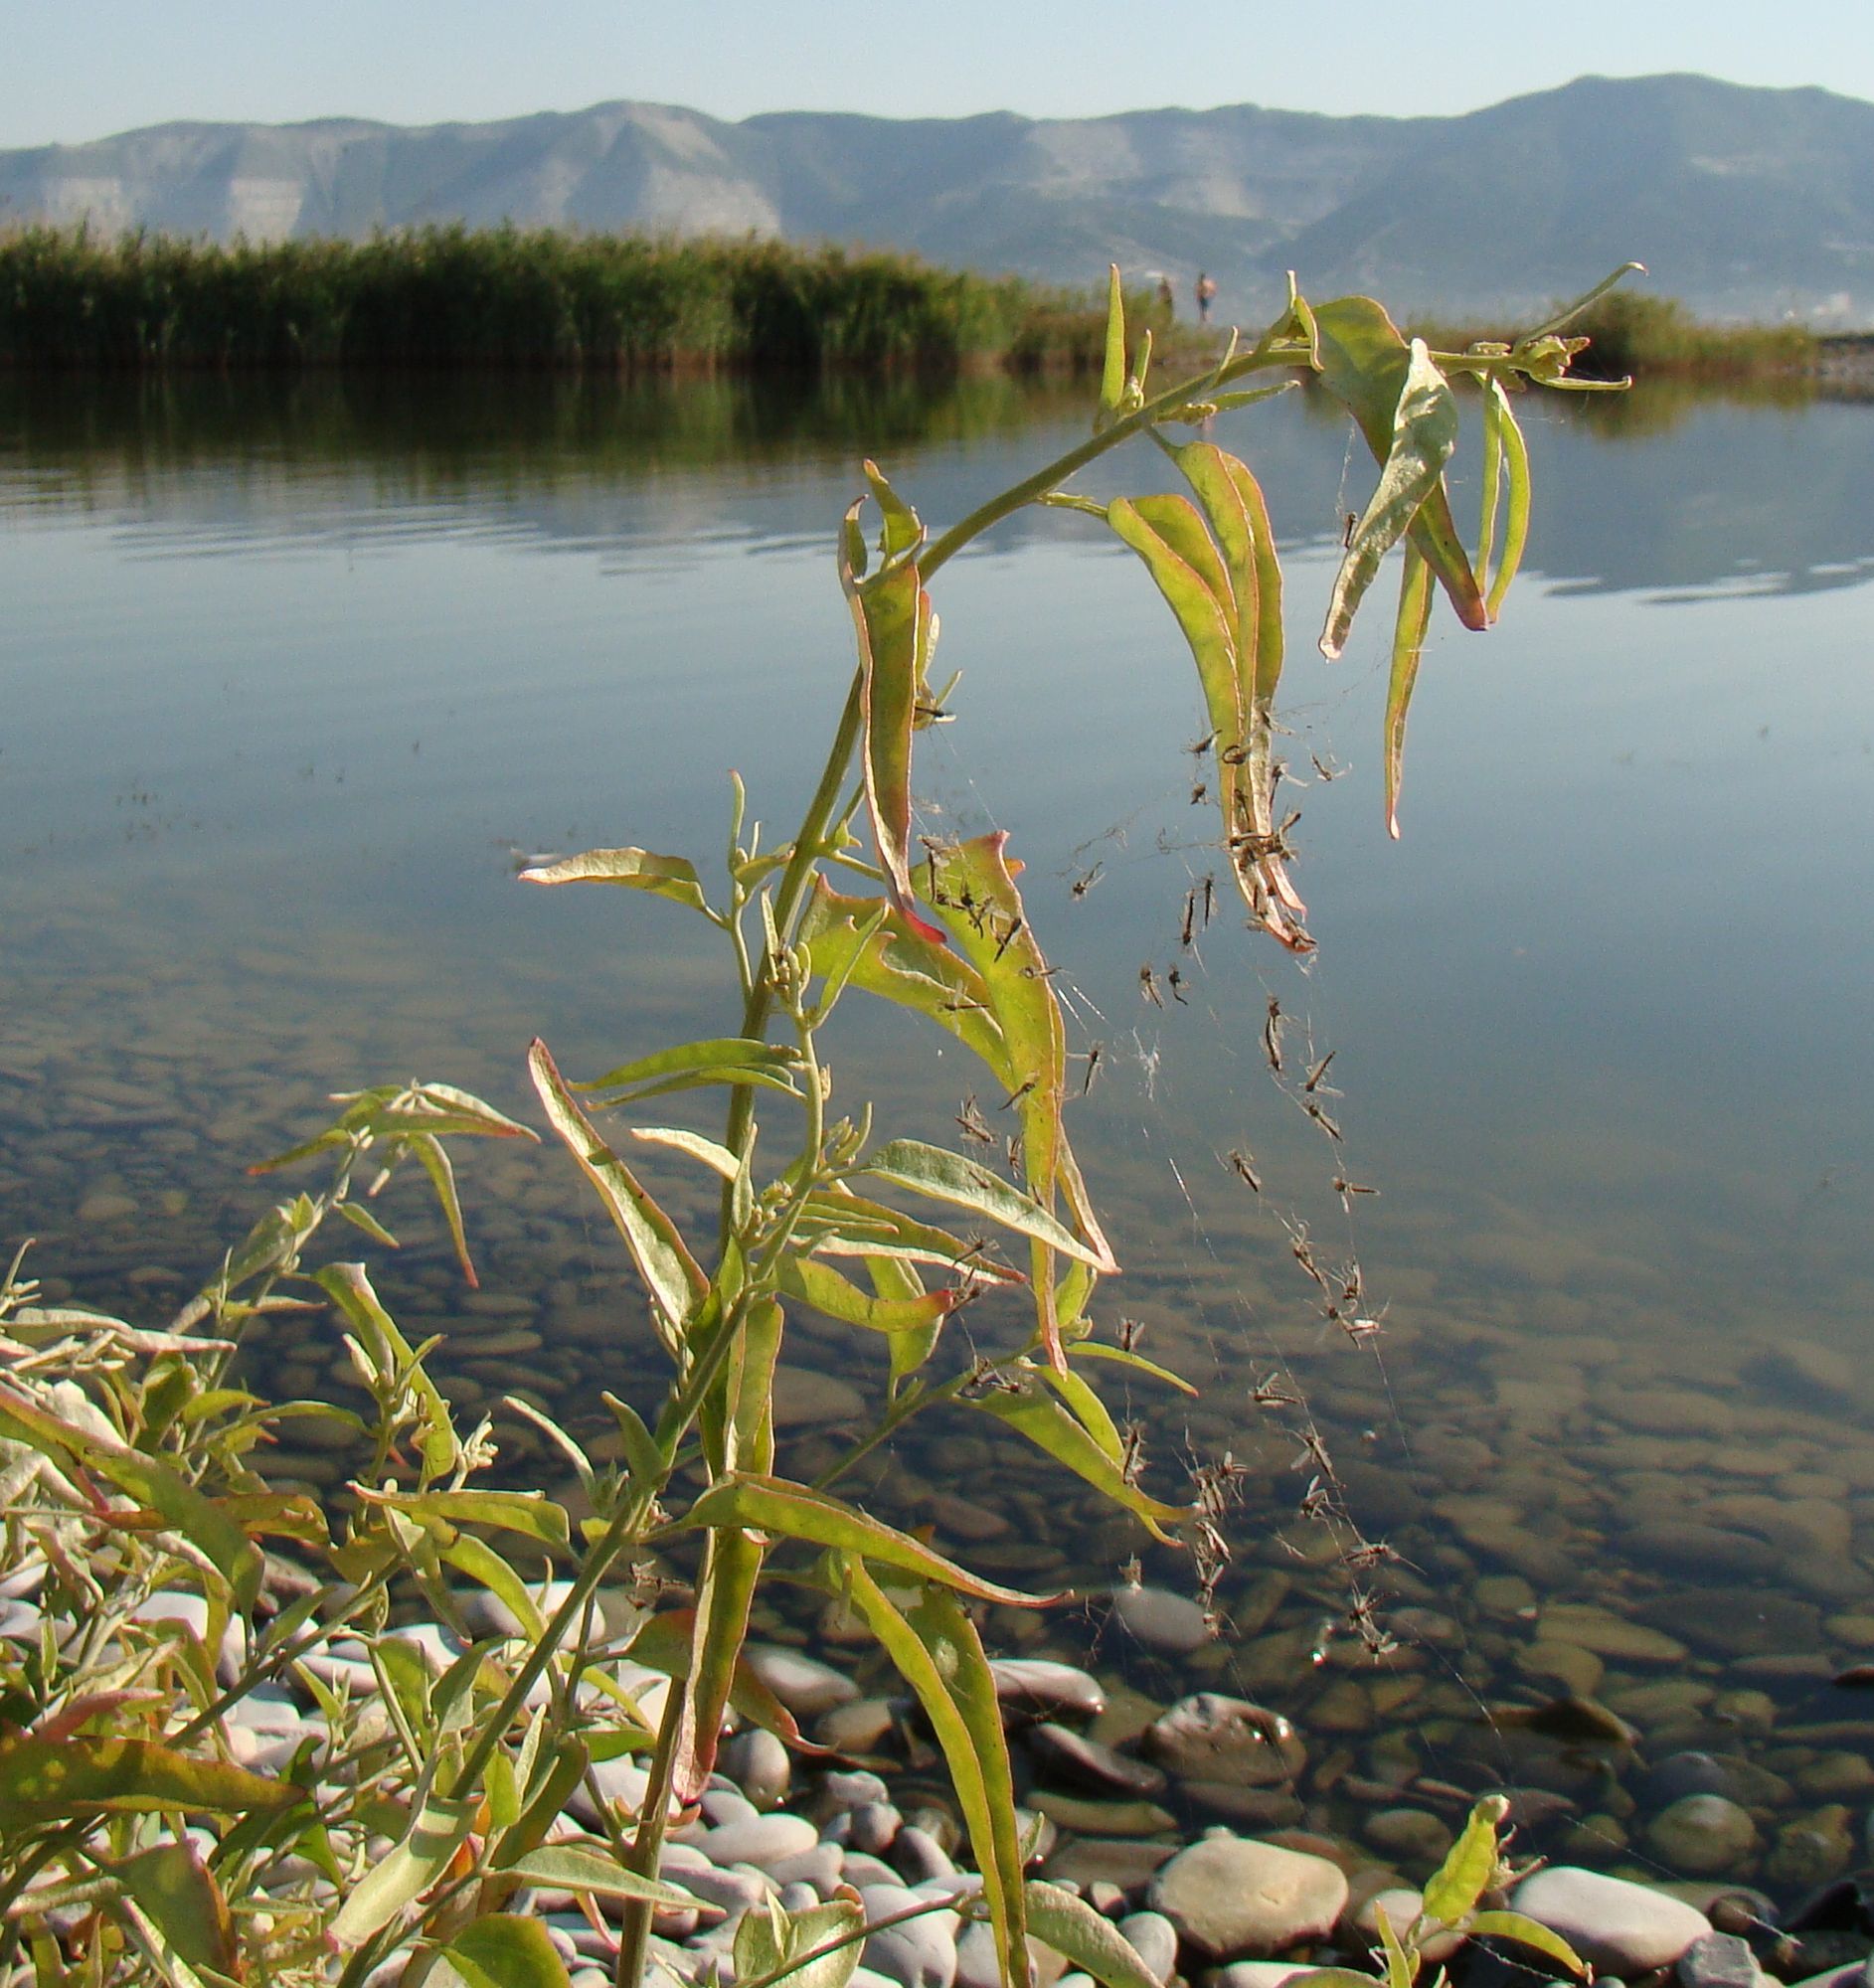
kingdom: Plantae
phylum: Tracheophyta
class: Magnoliopsida
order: Caryophyllales
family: Amaranthaceae
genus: Atriplex
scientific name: Atriplex aucheri
